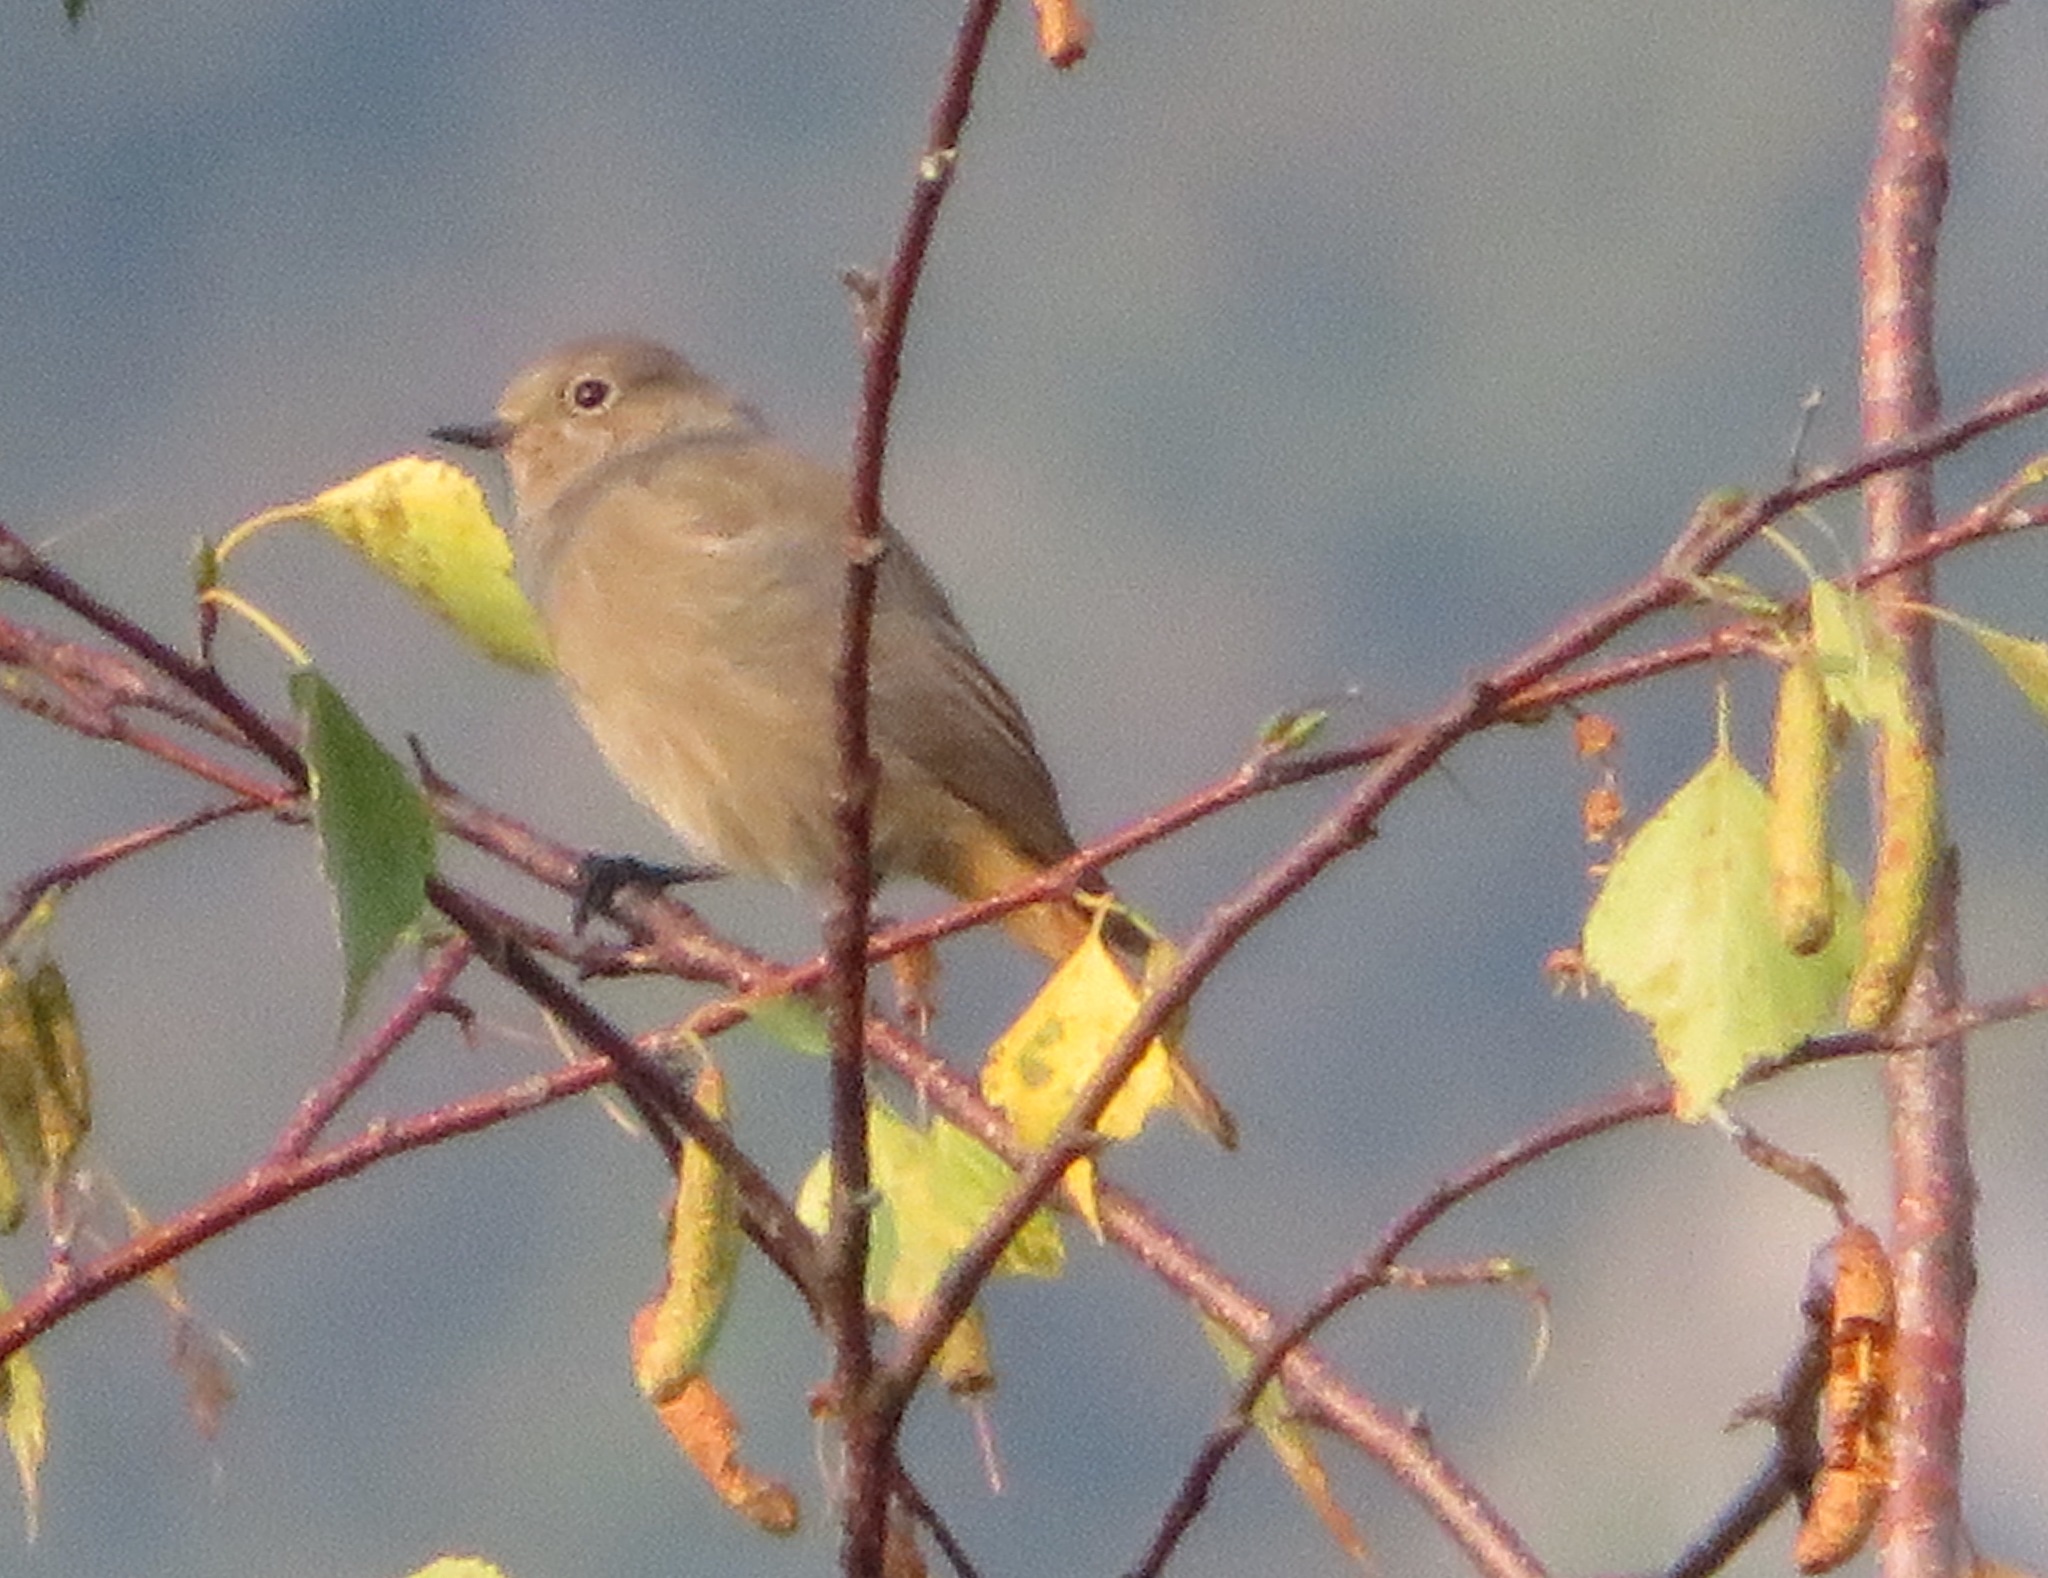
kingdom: Animalia
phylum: Chordata
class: Aves
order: Passeriformes
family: Muscicapidae
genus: Phoenicurus
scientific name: Phoenicurus ochruros
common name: Black redstart
